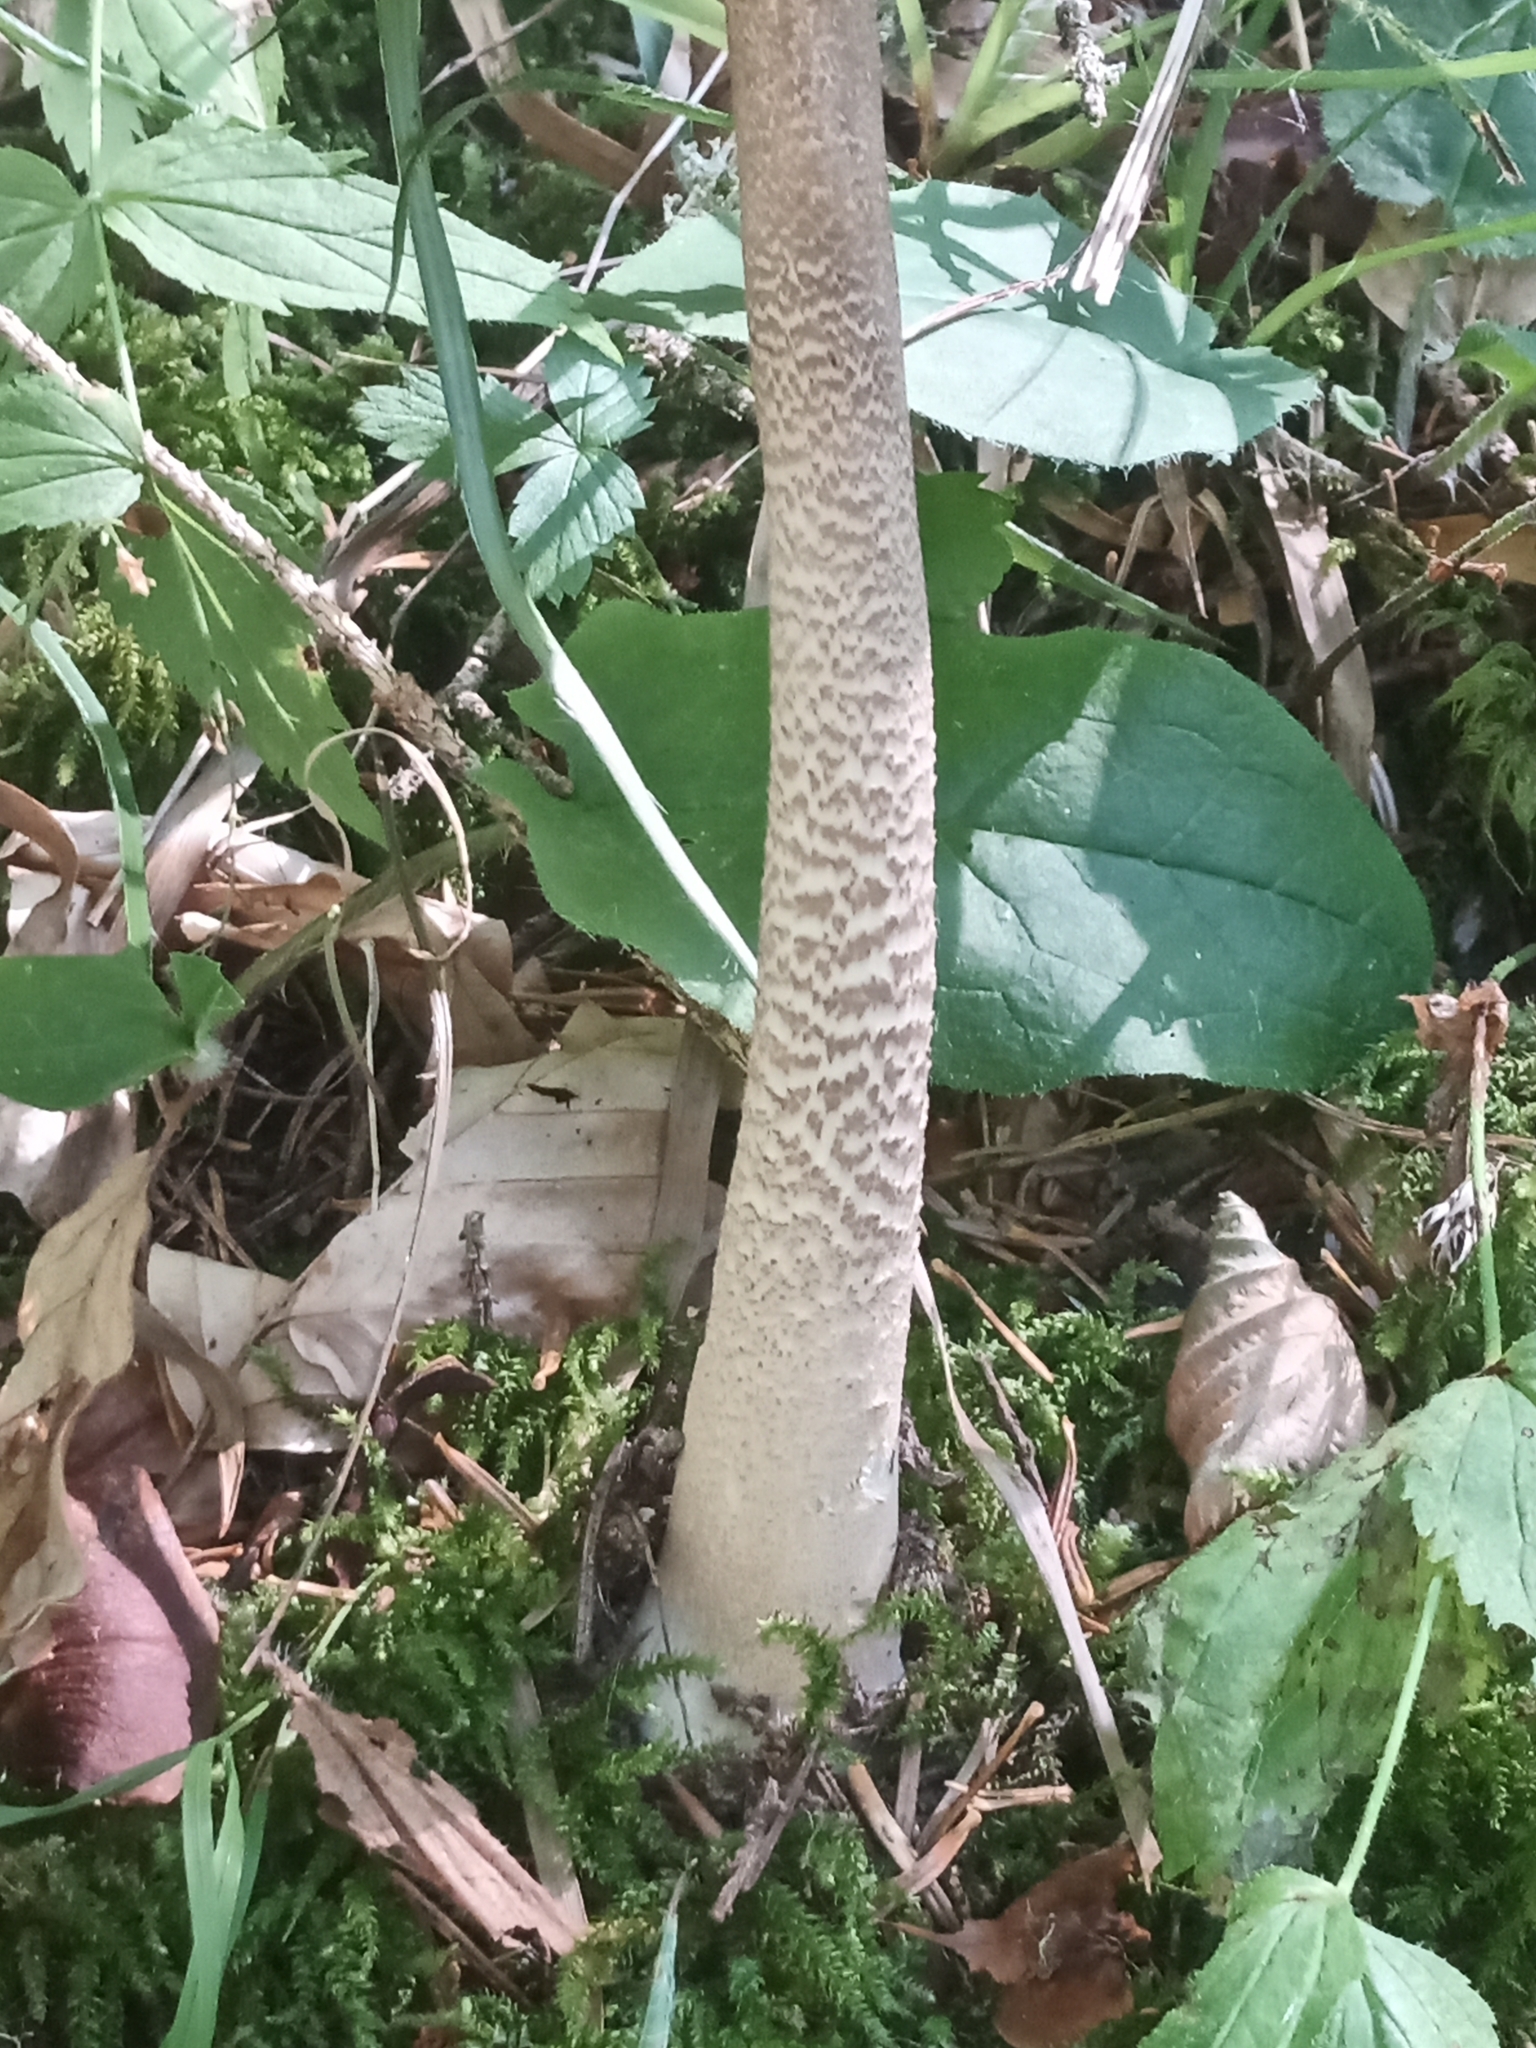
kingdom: Fungi
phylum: Basidiomycota
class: Agaricomycetes
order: Agaricales
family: Agaricaceae
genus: Macrolepiota
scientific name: Macrolepiota procera
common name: Parasol
